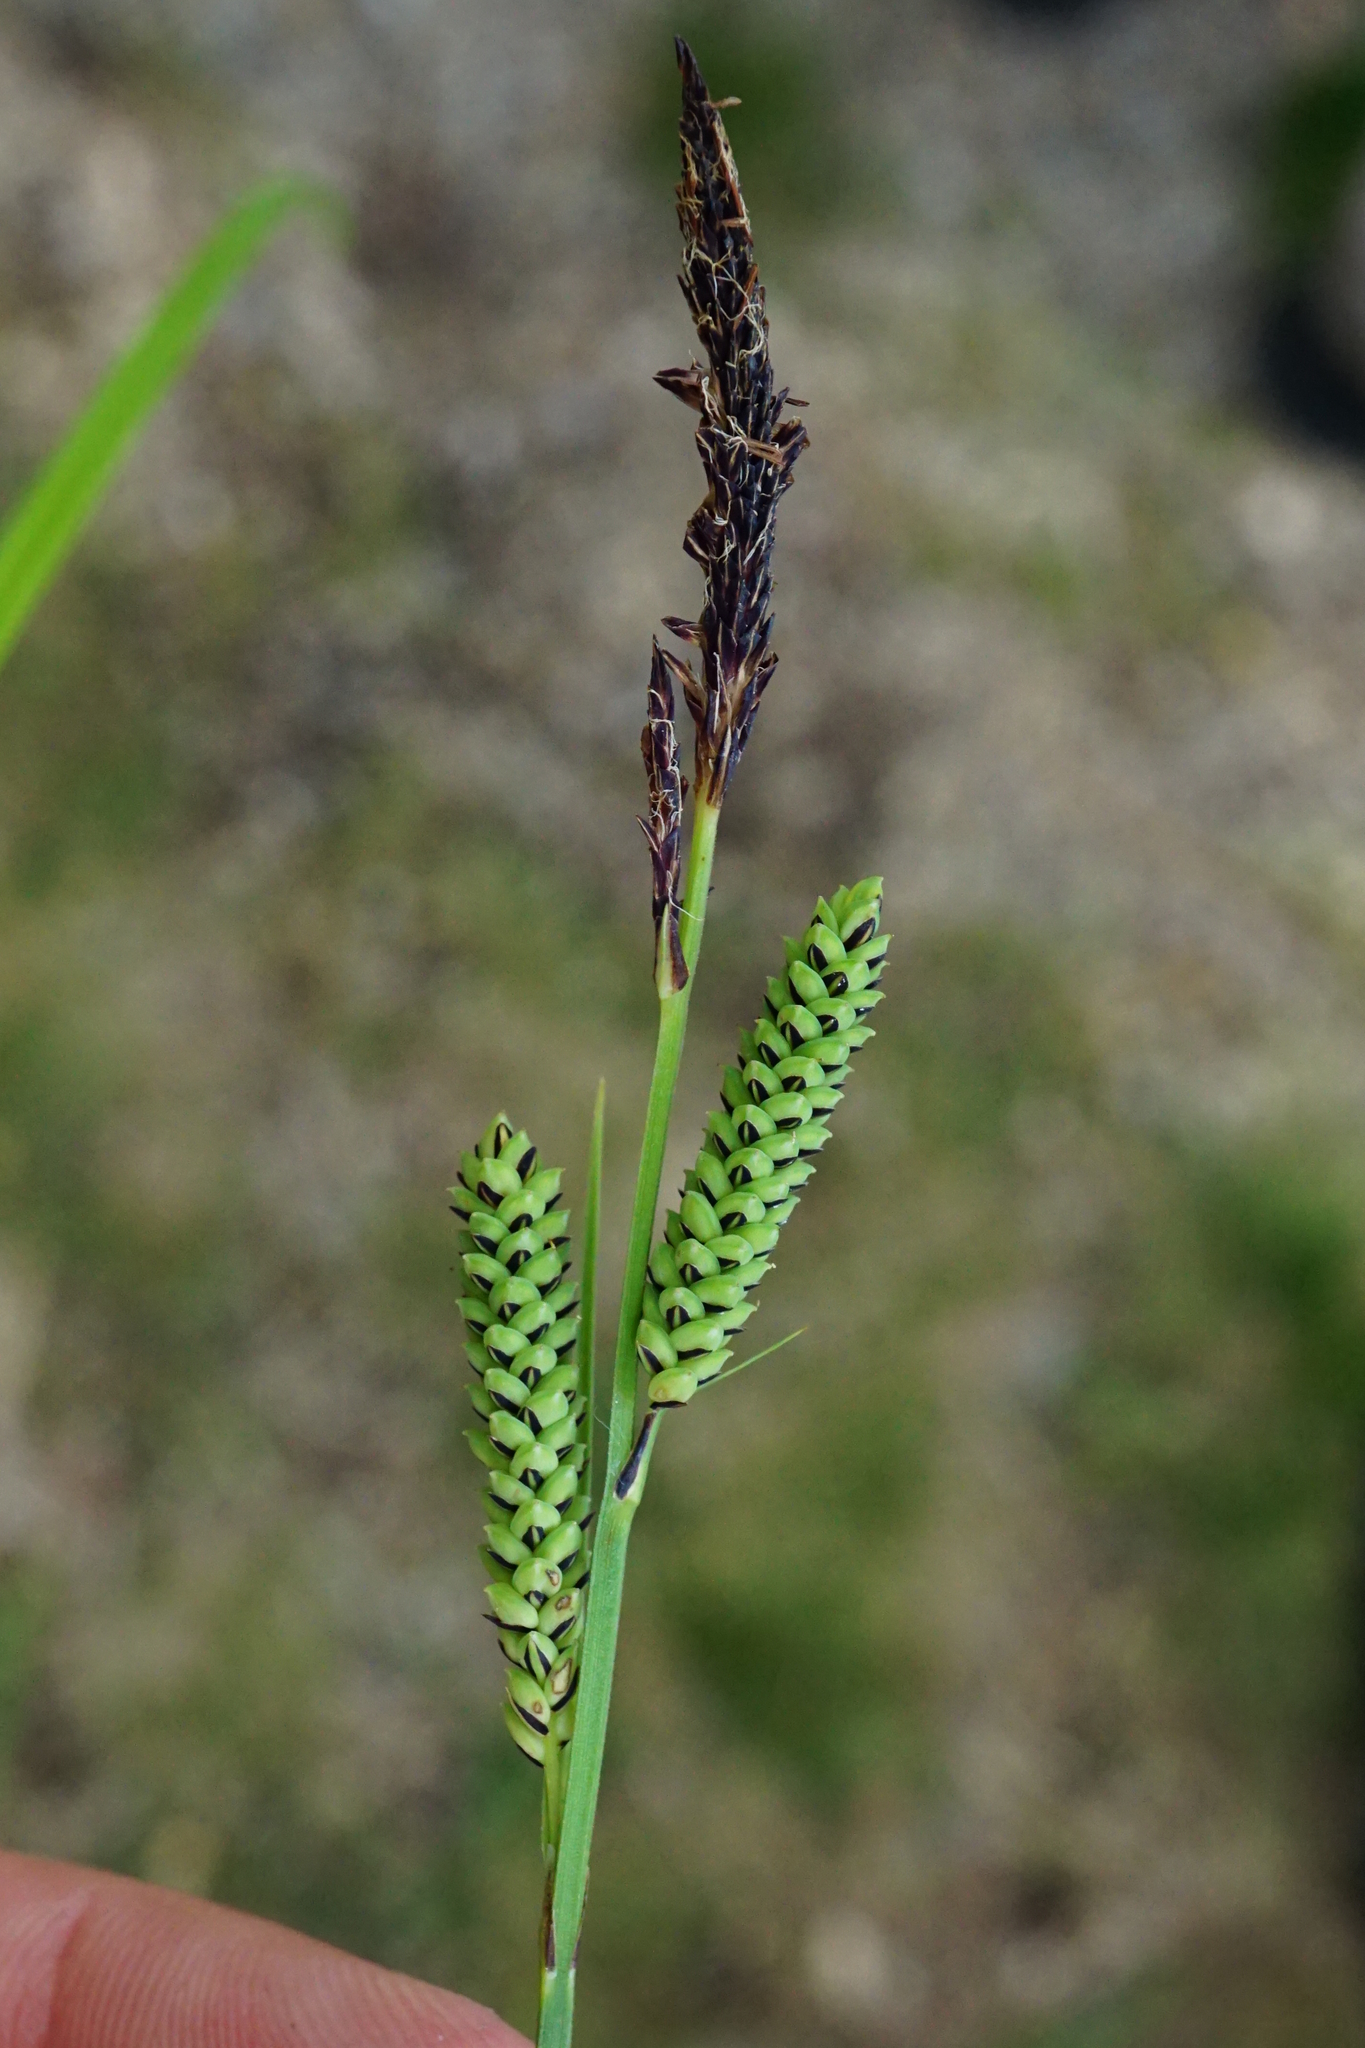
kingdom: Plantae
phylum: Tracheophyta
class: Liliopsida
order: Poales
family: Cyperaceae
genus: Carex
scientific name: Carex elata
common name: Tufted sedge
